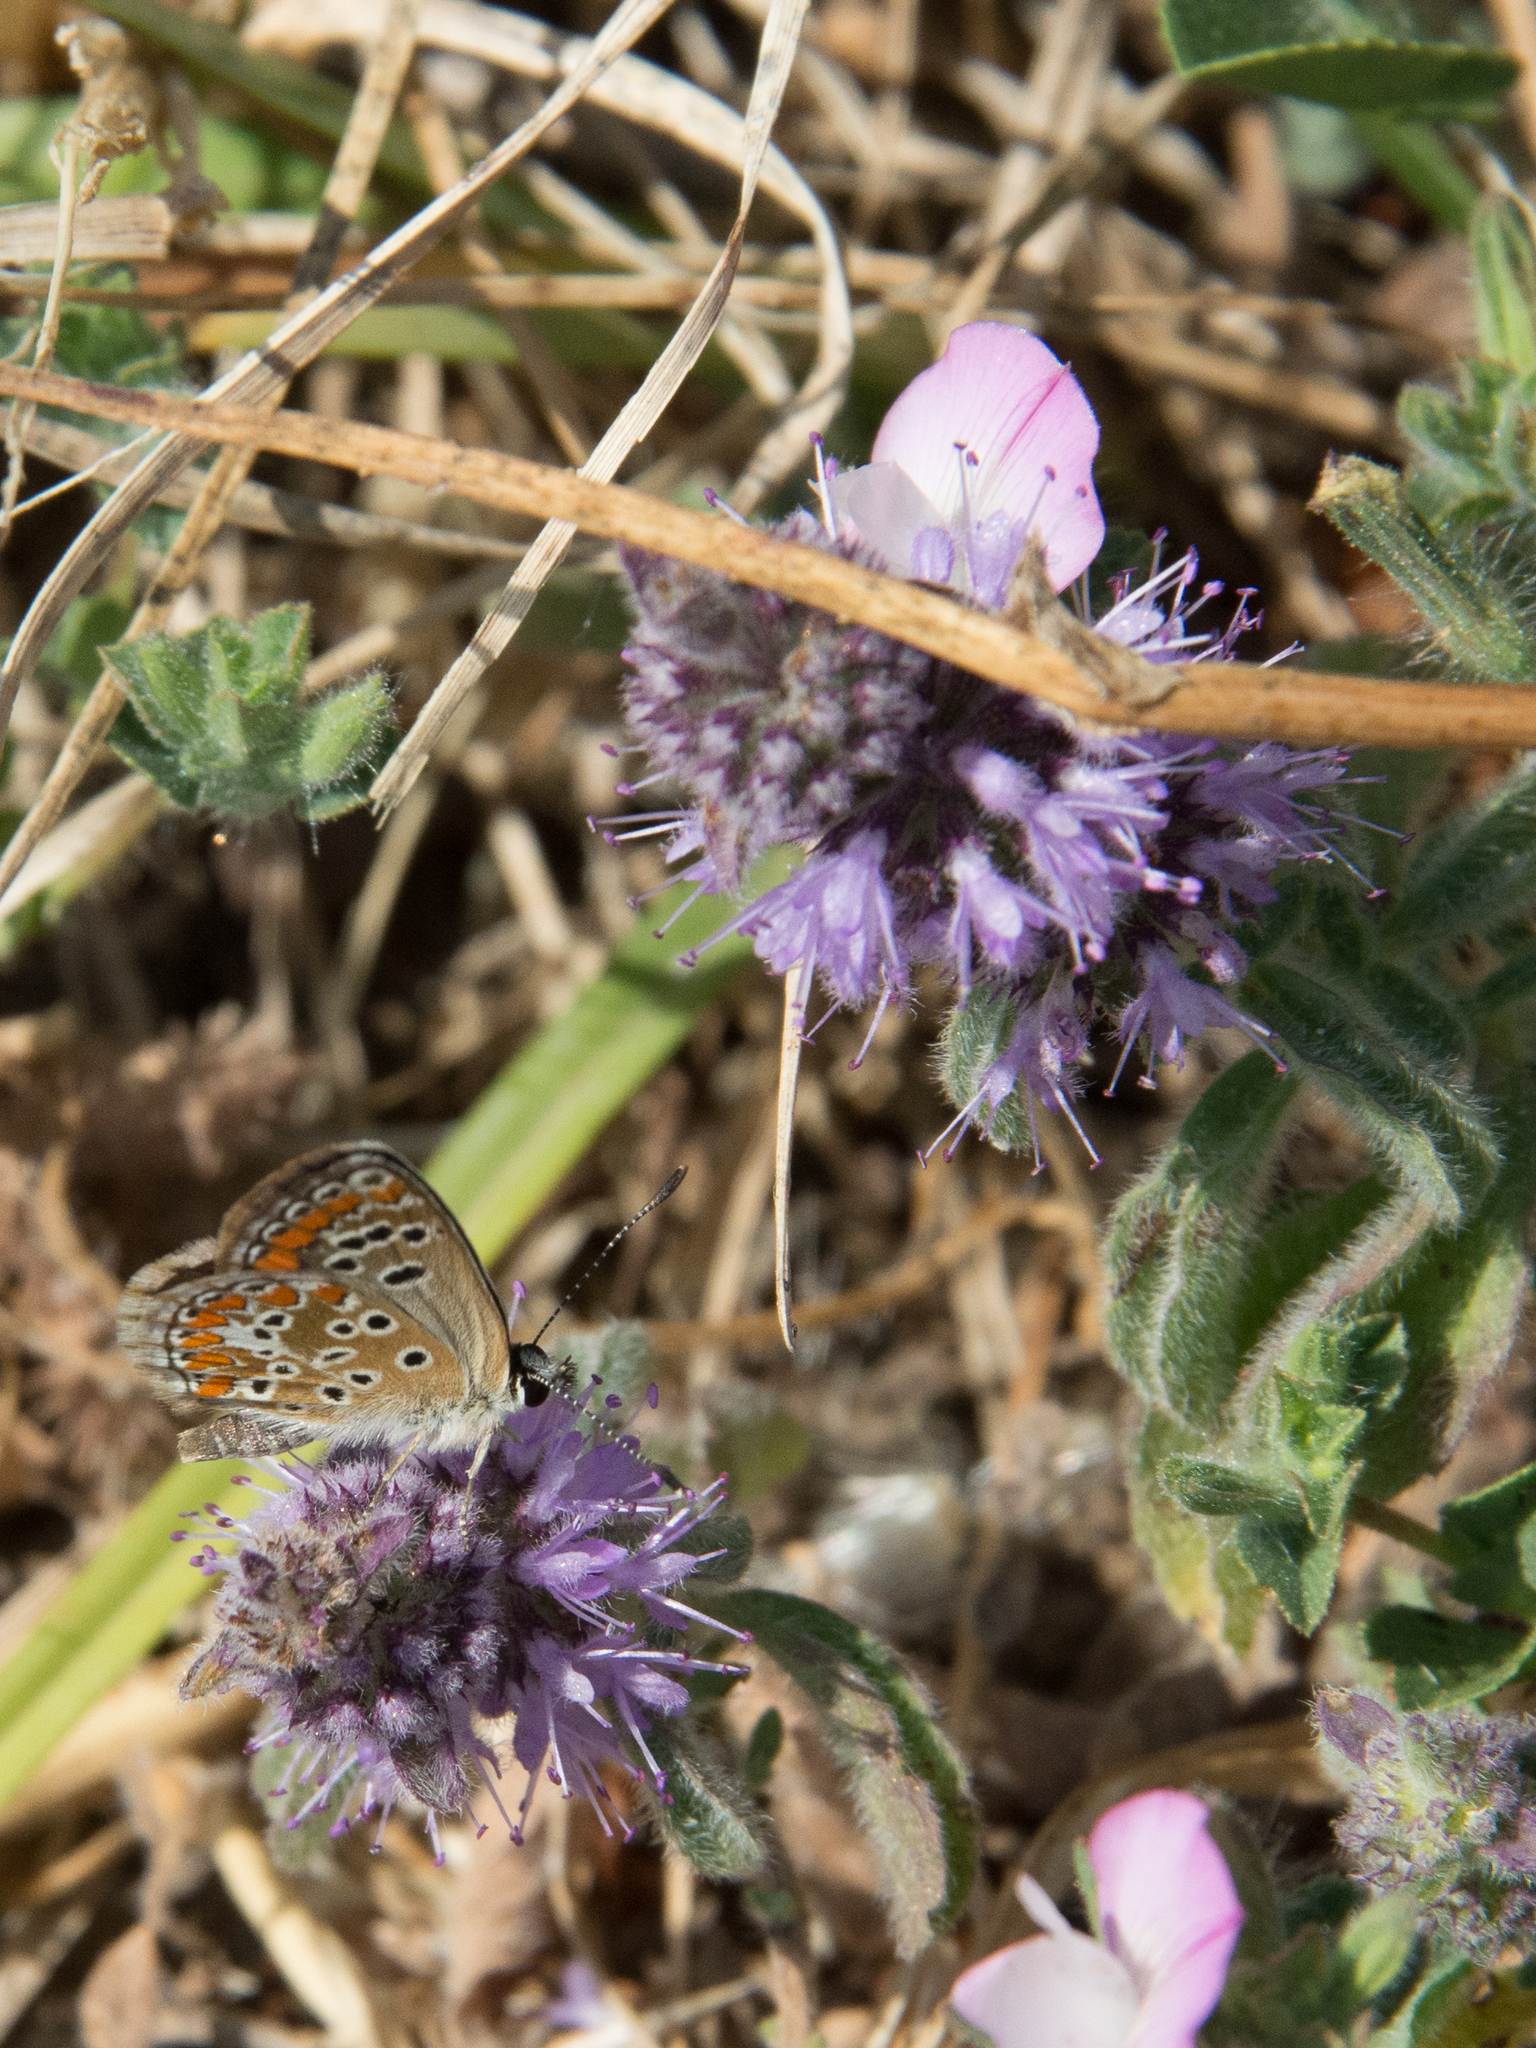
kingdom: Animalia
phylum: Arthropoda
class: Insecta
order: Lepidoptera
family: Lycaenidae
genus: Aricia
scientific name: Aricia agestis
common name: Brown argus
